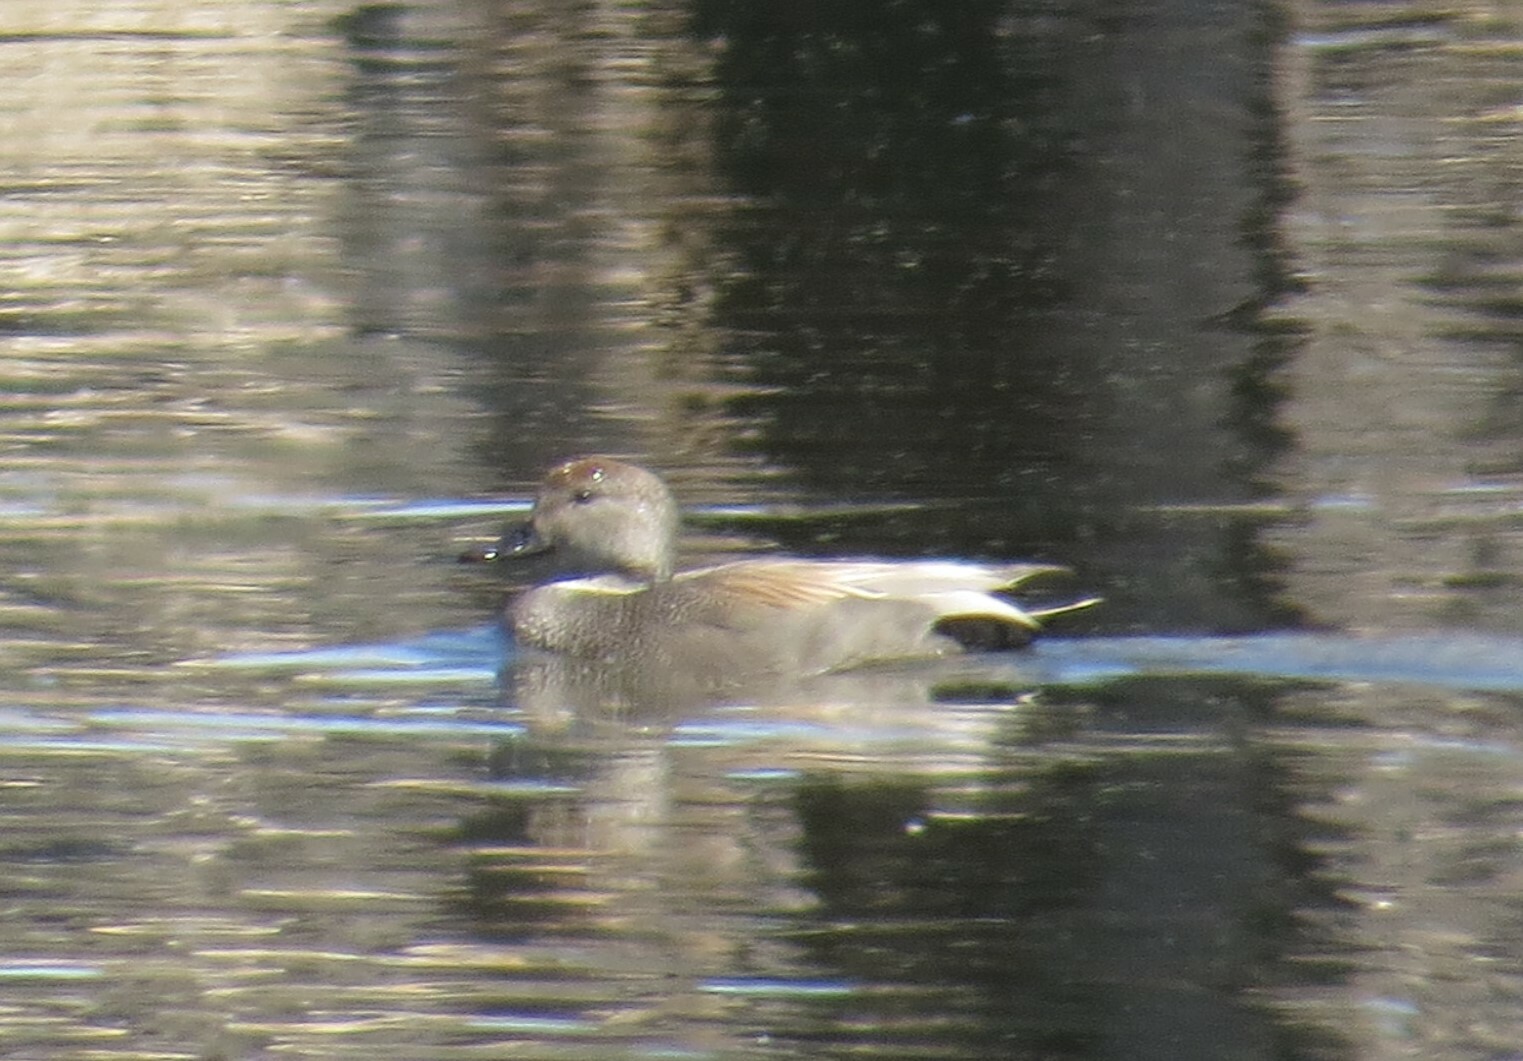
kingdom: Animalia
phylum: Chordata
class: Aves
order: Anseriformes
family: Anatidae
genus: Mareca
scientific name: Mareca strepera
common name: Gadwall
